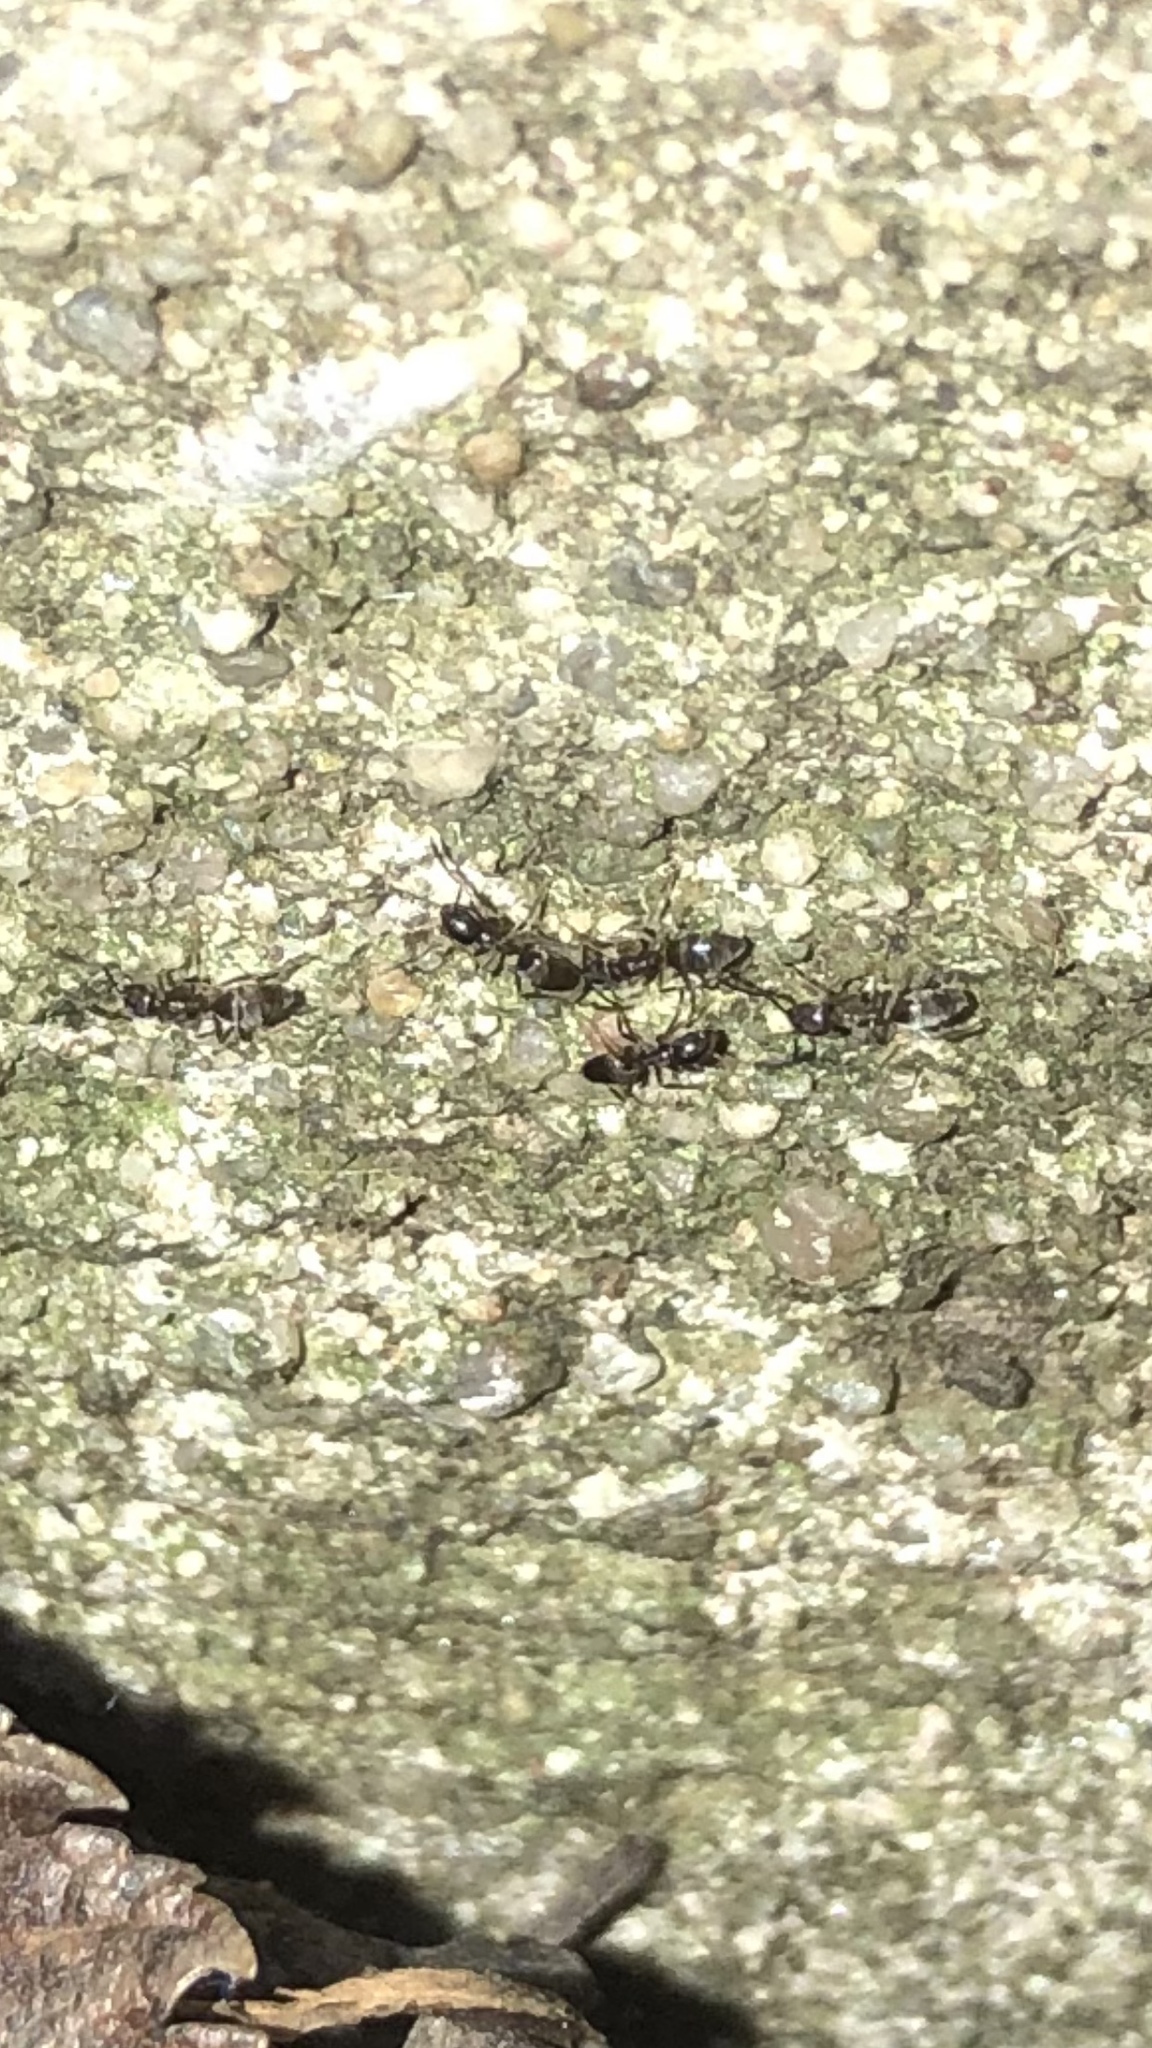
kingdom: Animalia
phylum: Arthropoda
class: Insecta
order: Hymenoptera
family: Formicidae
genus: Tapinoma
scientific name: Tapinoma sessile
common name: Odorous house ant
